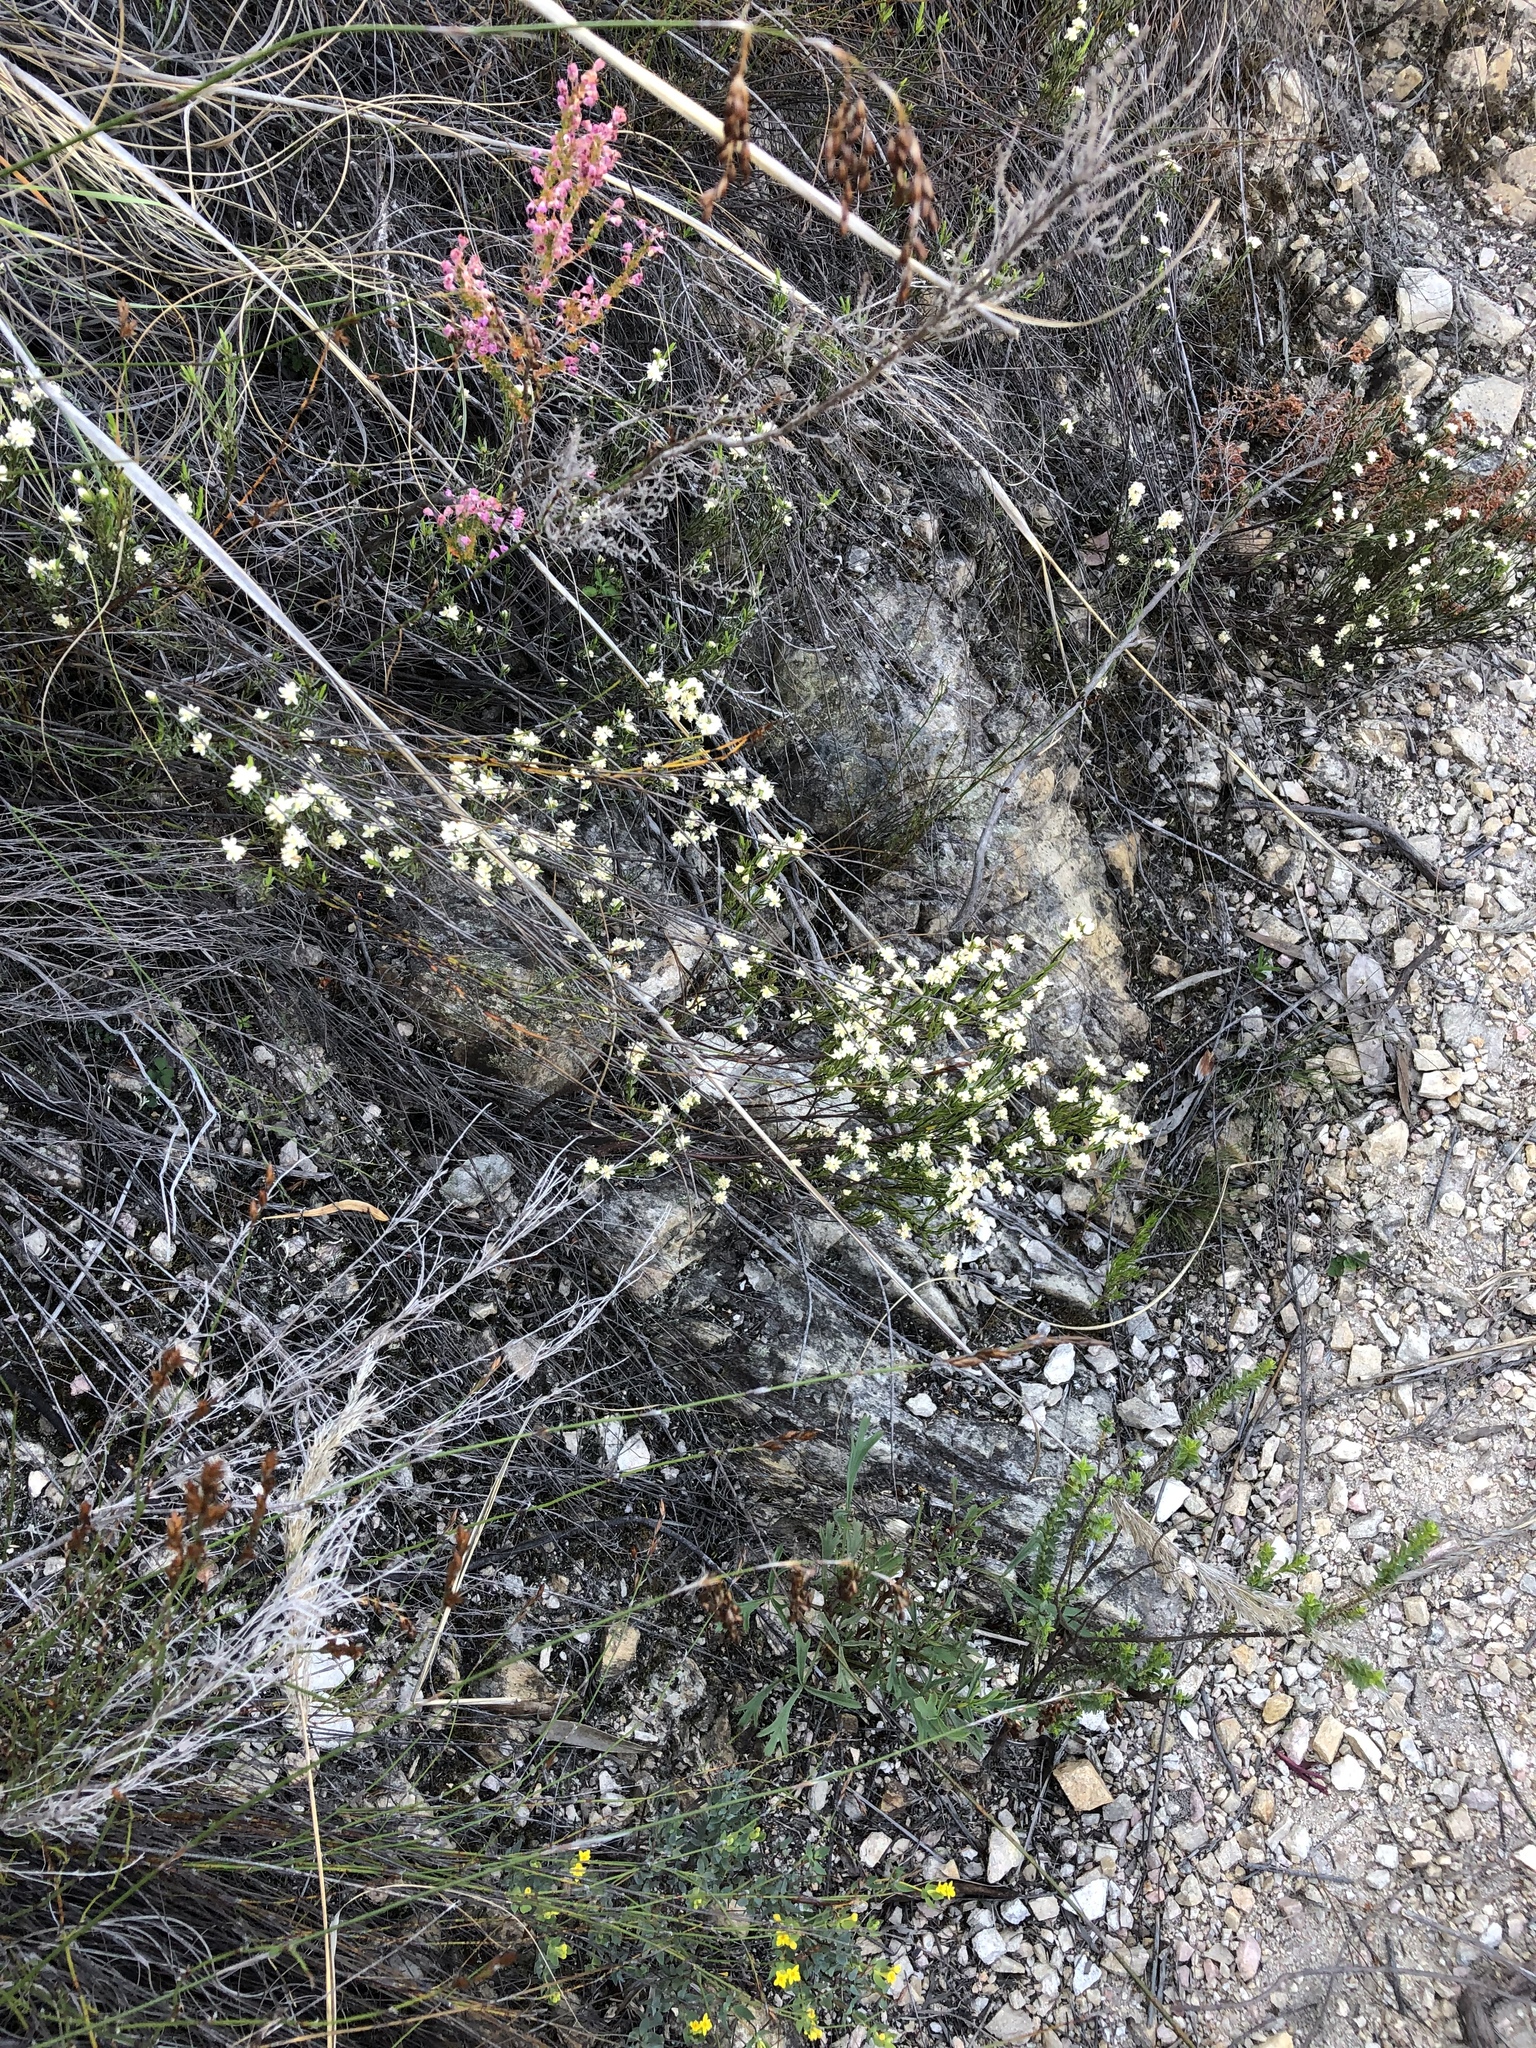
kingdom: Plantae
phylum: Tracheophyta
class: Magnoliopsida
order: Malvales
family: Thymelaeaceae
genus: Lachnaea
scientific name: Lachnaea diosmoides
